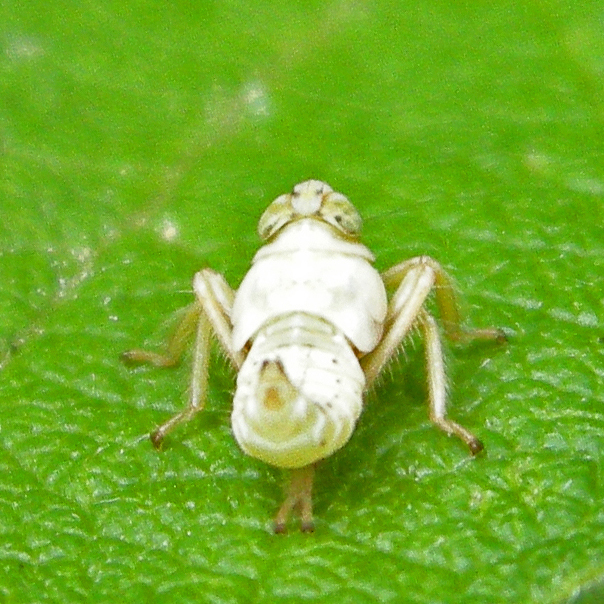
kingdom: Animalia
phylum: Arthropoda
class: Insecta
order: Hemiptera
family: Cicadellidae
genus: Jikradia
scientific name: Jikradia olitoria
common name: Coppery leafhopper
